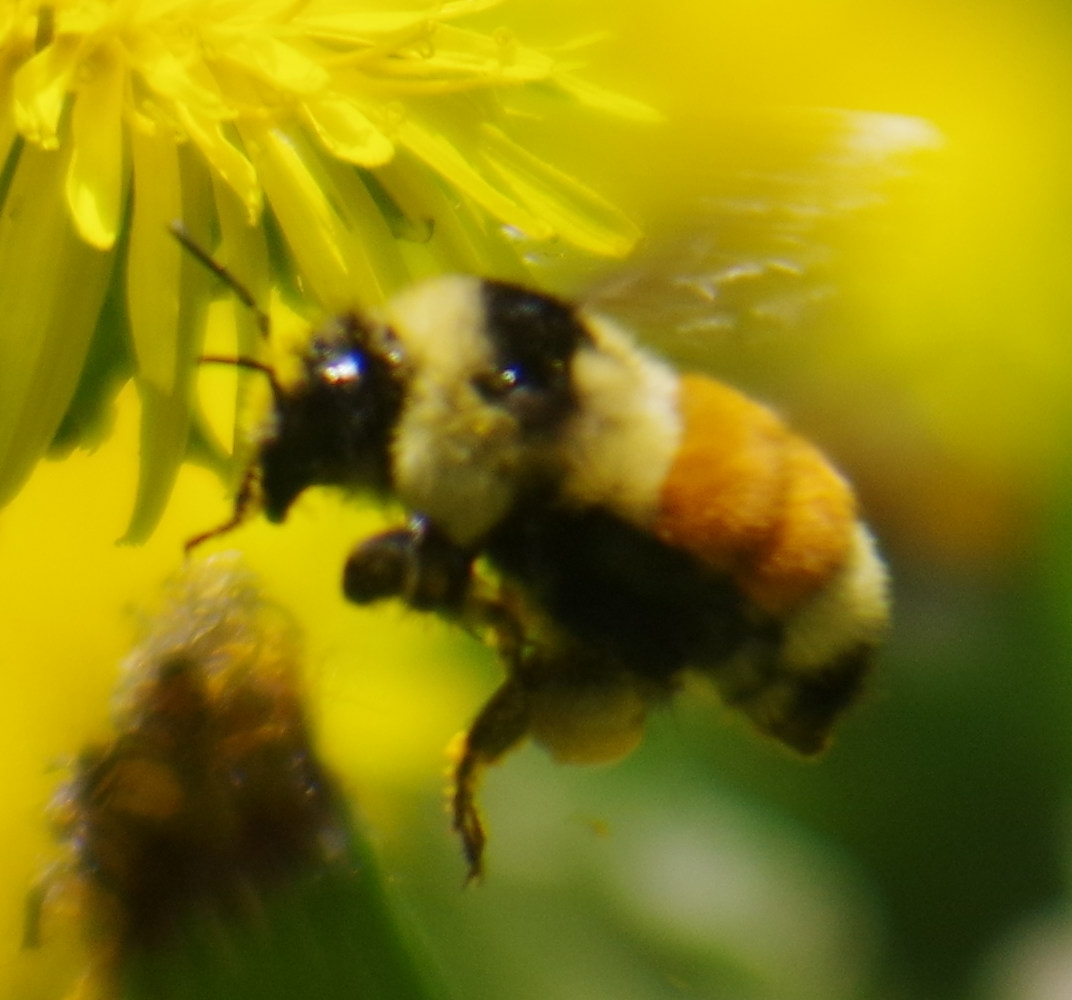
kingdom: Animalia
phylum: Arthropoda
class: Insecta
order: Hymenoptera
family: Apidae
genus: Bombus
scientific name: Bombus ternarius
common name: Tri-colored bumble bee
